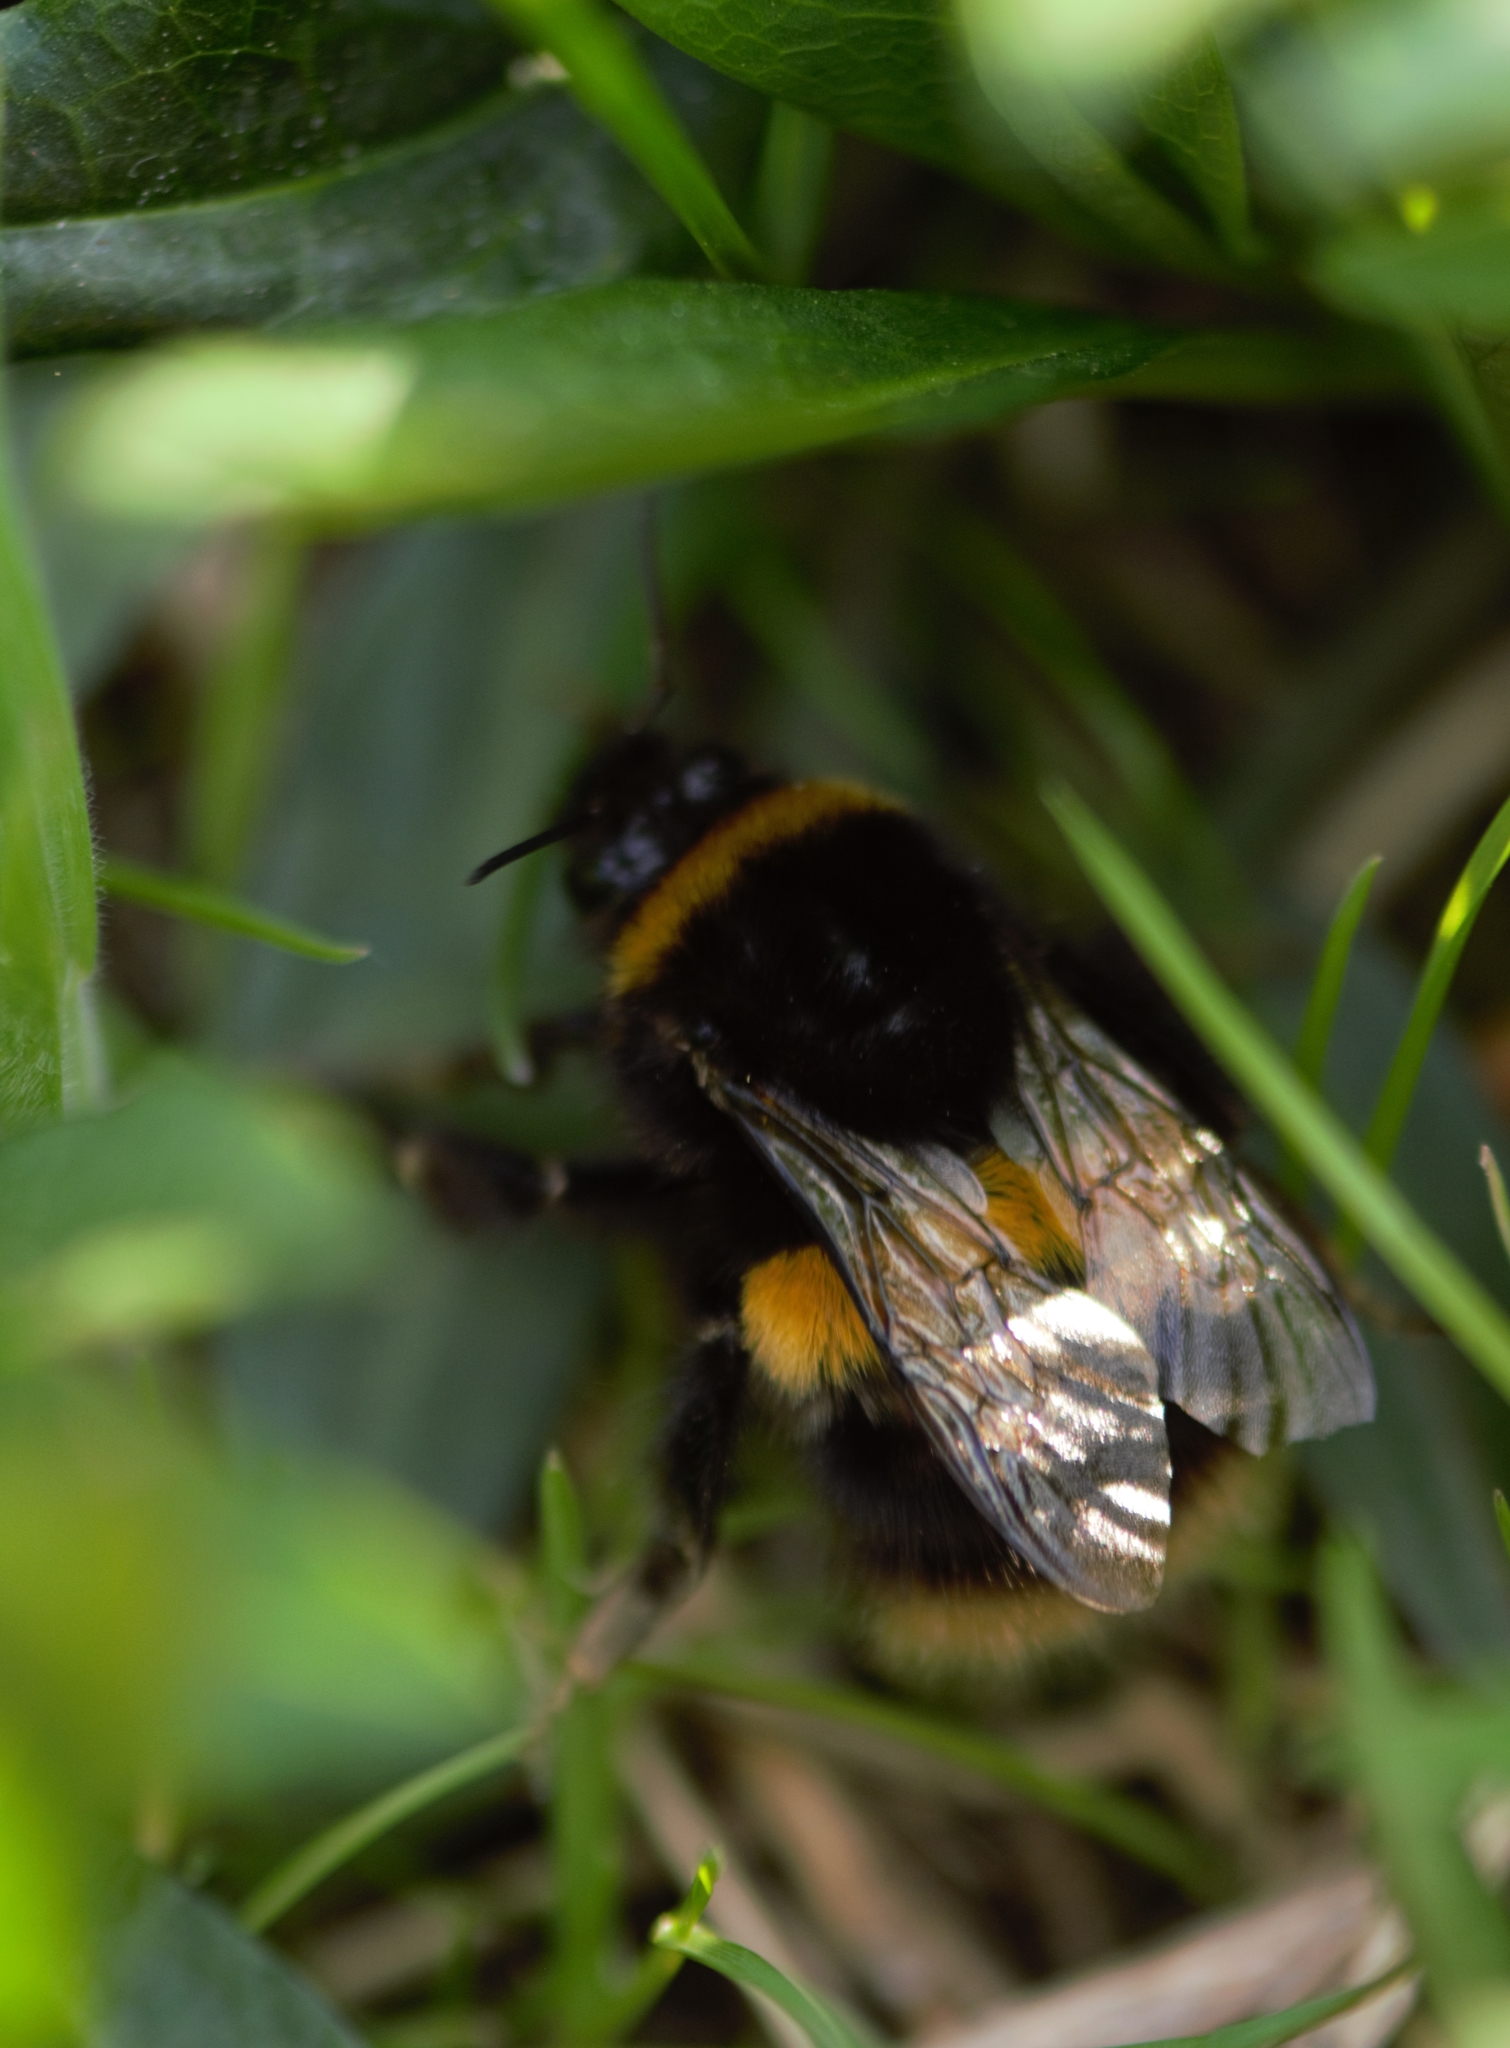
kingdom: Animalia
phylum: Arthropoda
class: Insecta
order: Hymenoptera
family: Apidae
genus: Bombus
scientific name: Bombus terrestris
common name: Buff-tailed bumblebee
